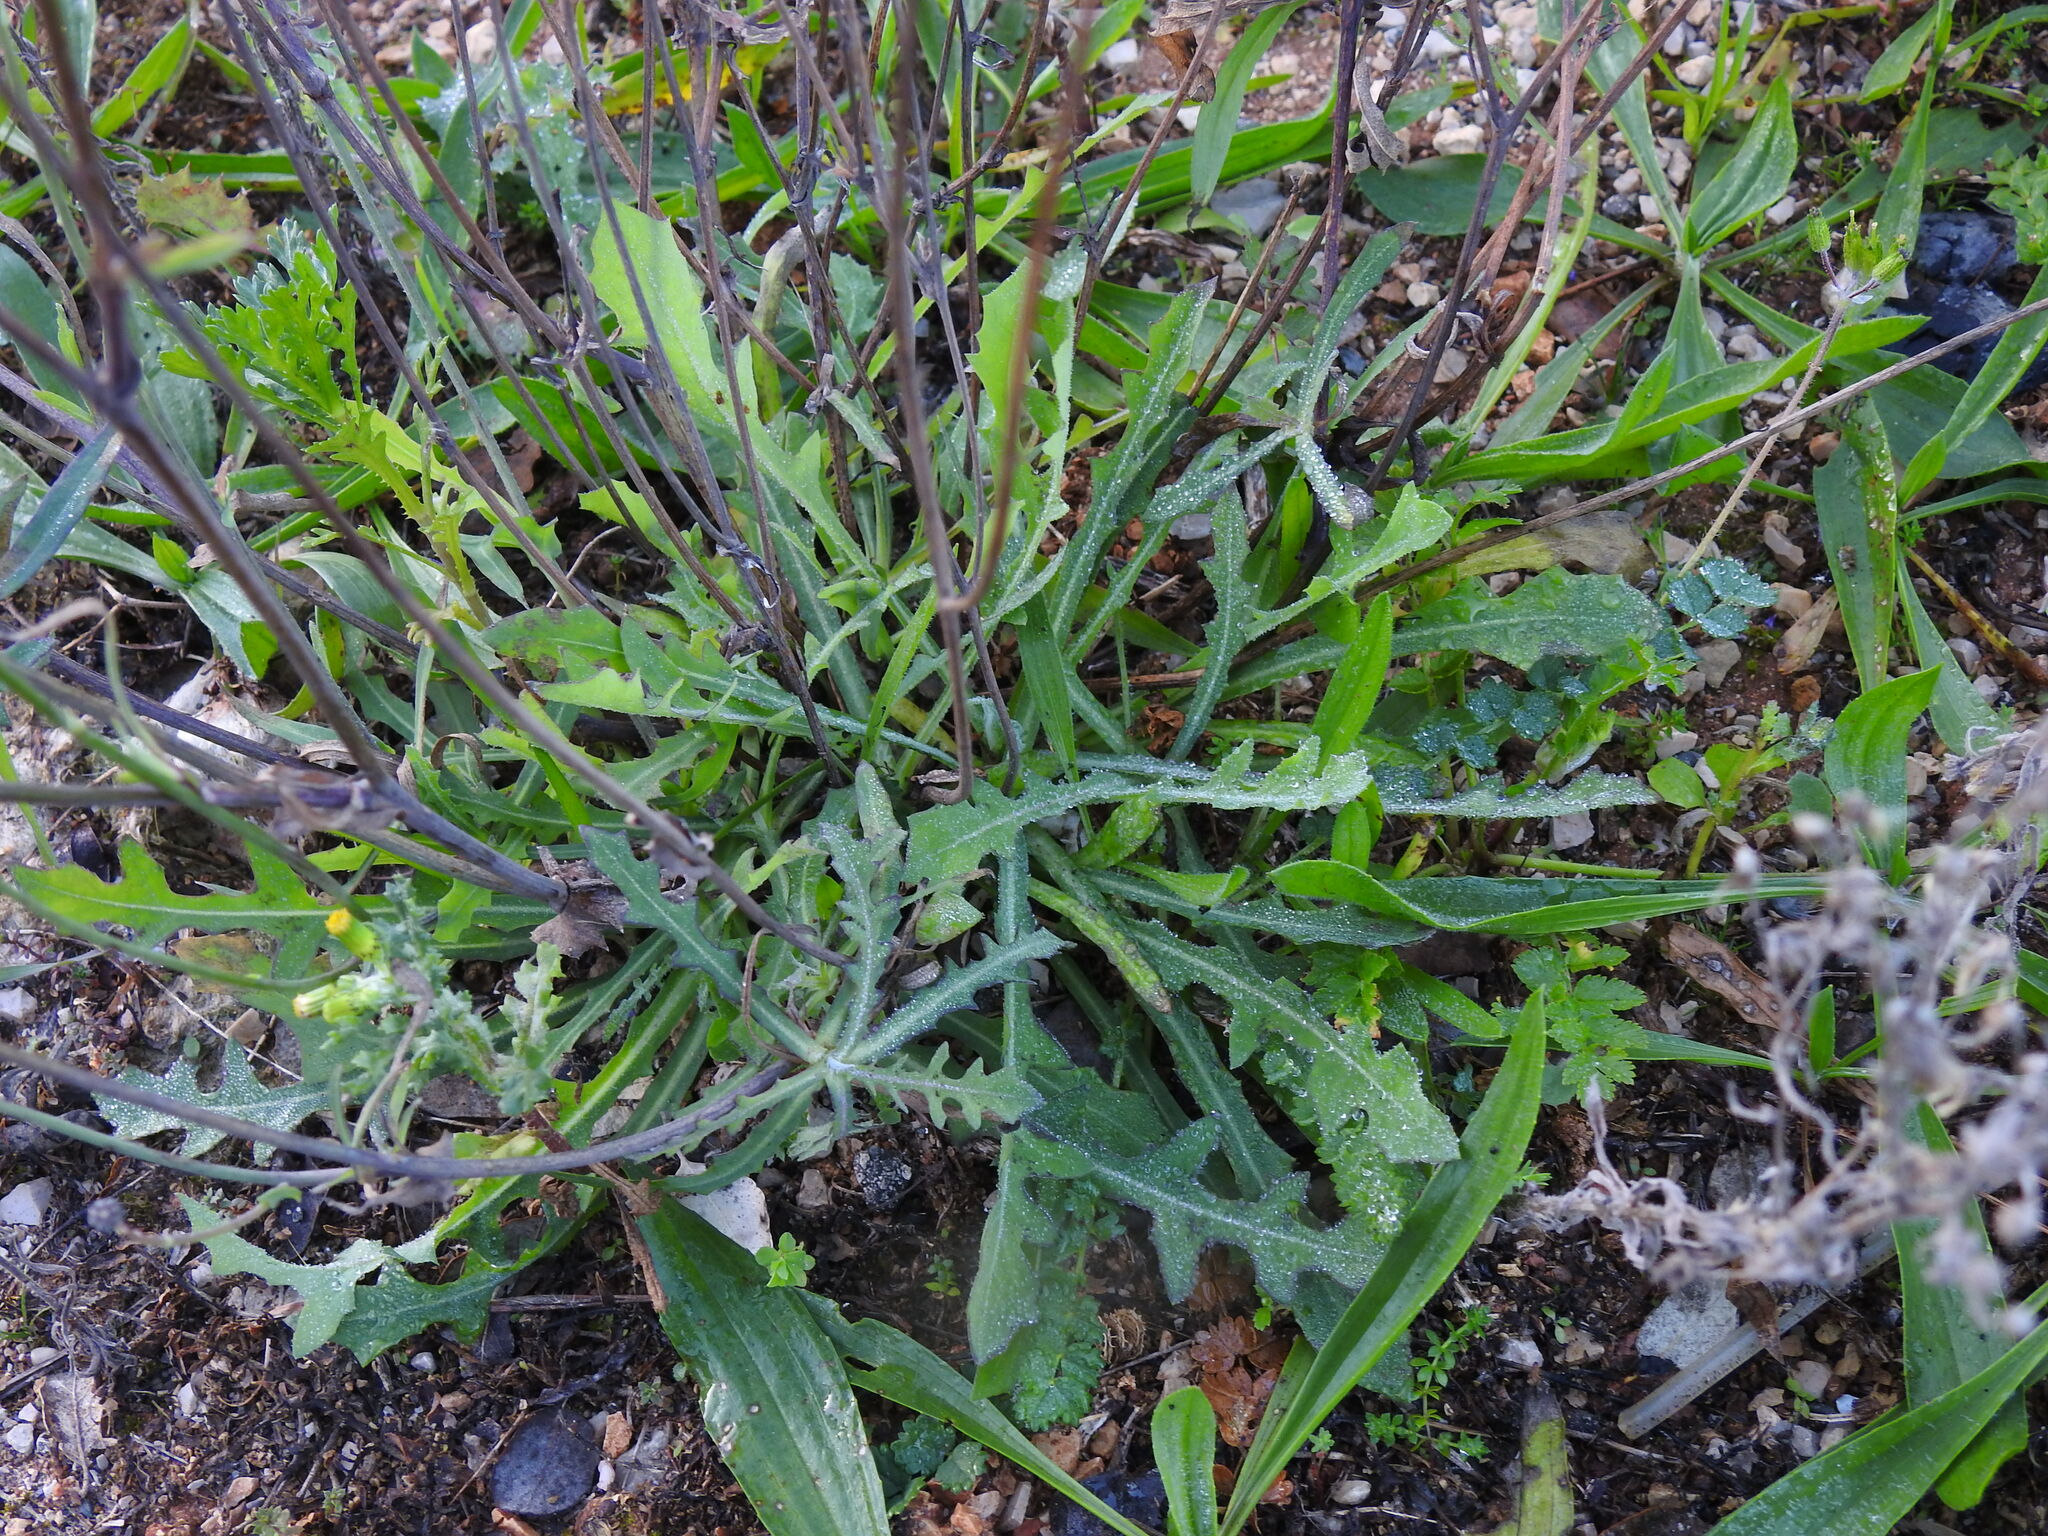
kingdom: Plantae
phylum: Tracheophyta
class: Magnoliopsida
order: Asterales
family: Asteraceae
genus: Reichardia
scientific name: Reichardia picroides
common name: Common brighteyes
